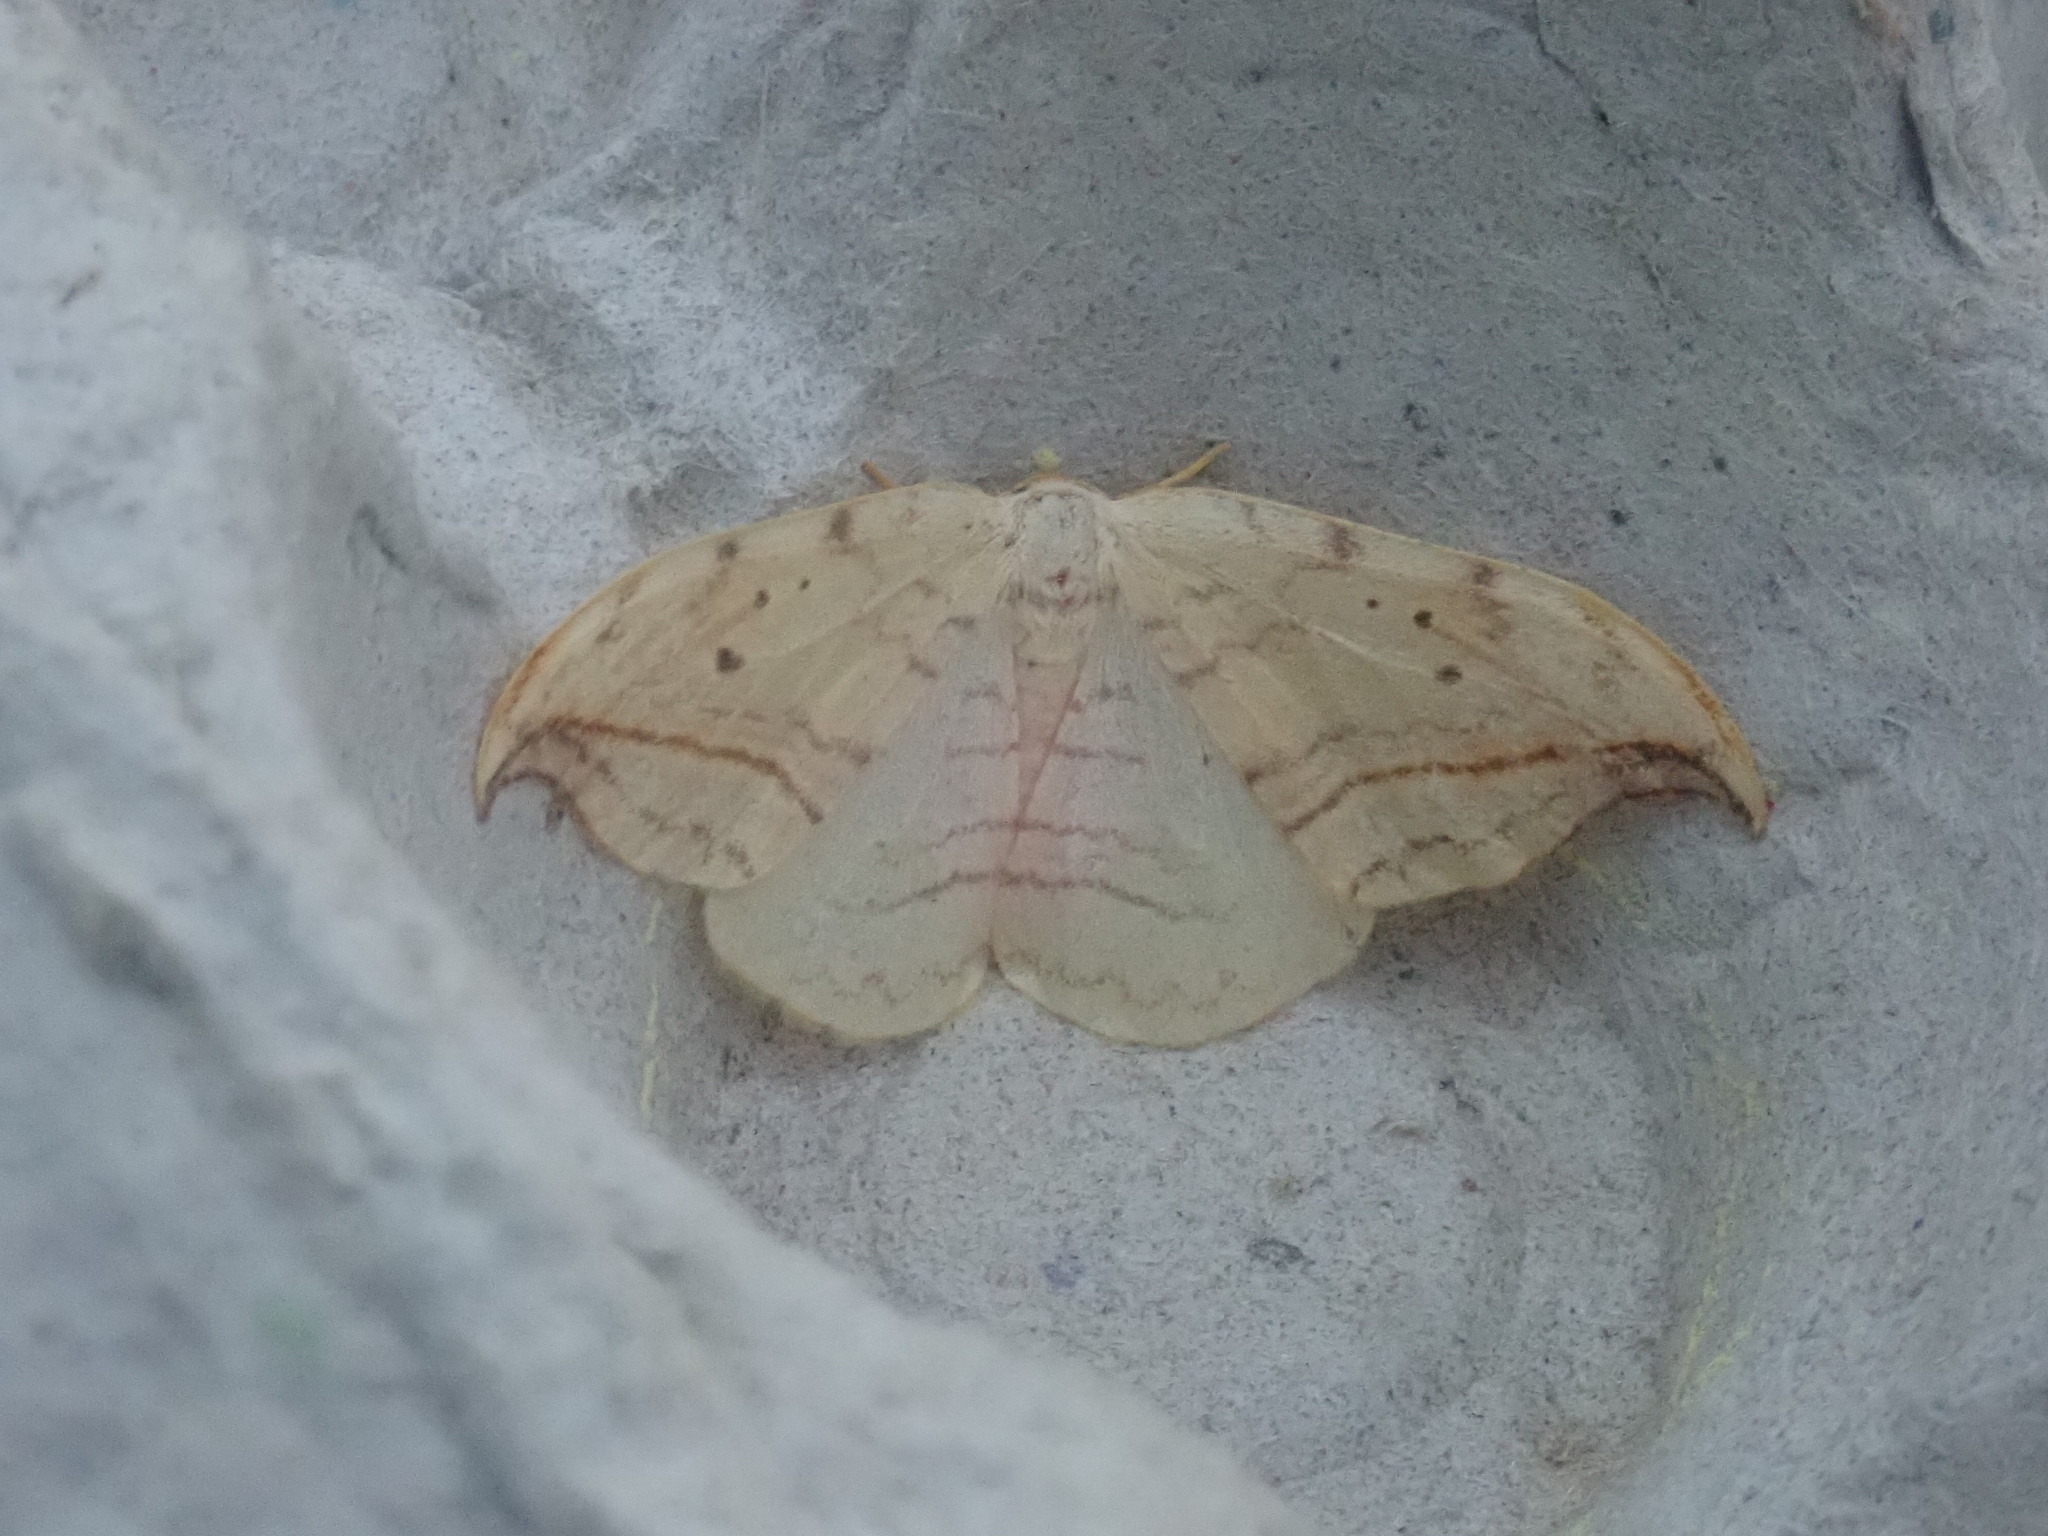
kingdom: Animalia
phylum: Arthropoda
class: Insecta
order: Lepidoptera
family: Drepanidae
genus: Drepana
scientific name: Drepana arcuata
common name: Arched hooktip moth
